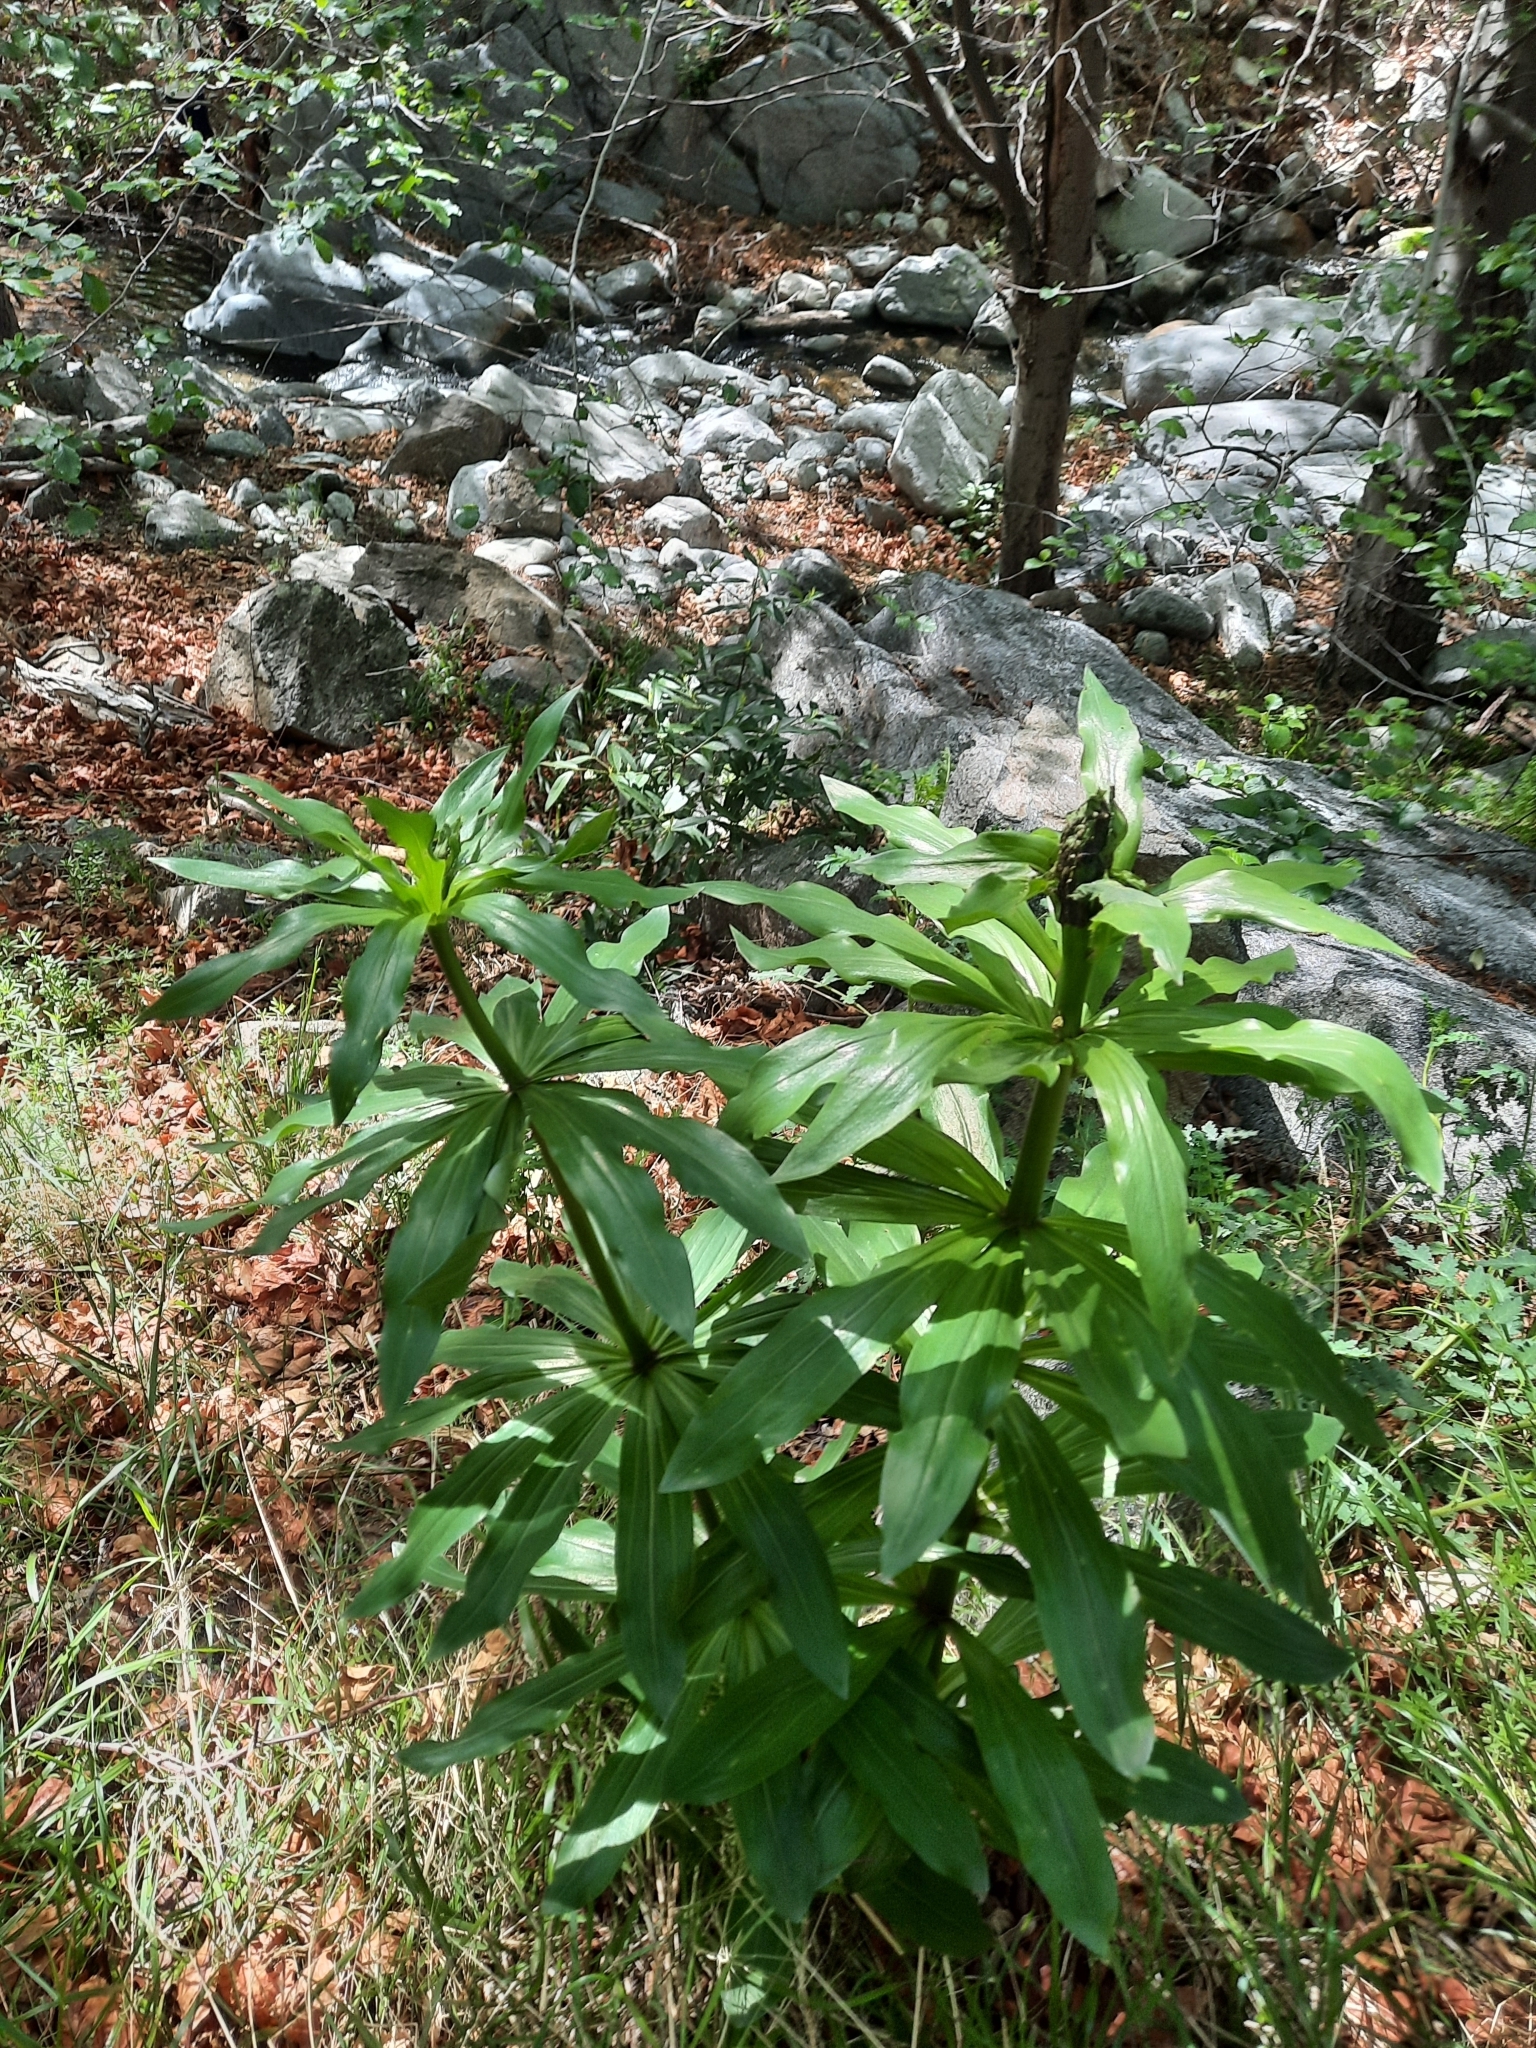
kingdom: Plantae
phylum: Tracheophyta
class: Liliopsida
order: Liliales
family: Liliaceae
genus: Lilium
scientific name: Lilium humboldtii
